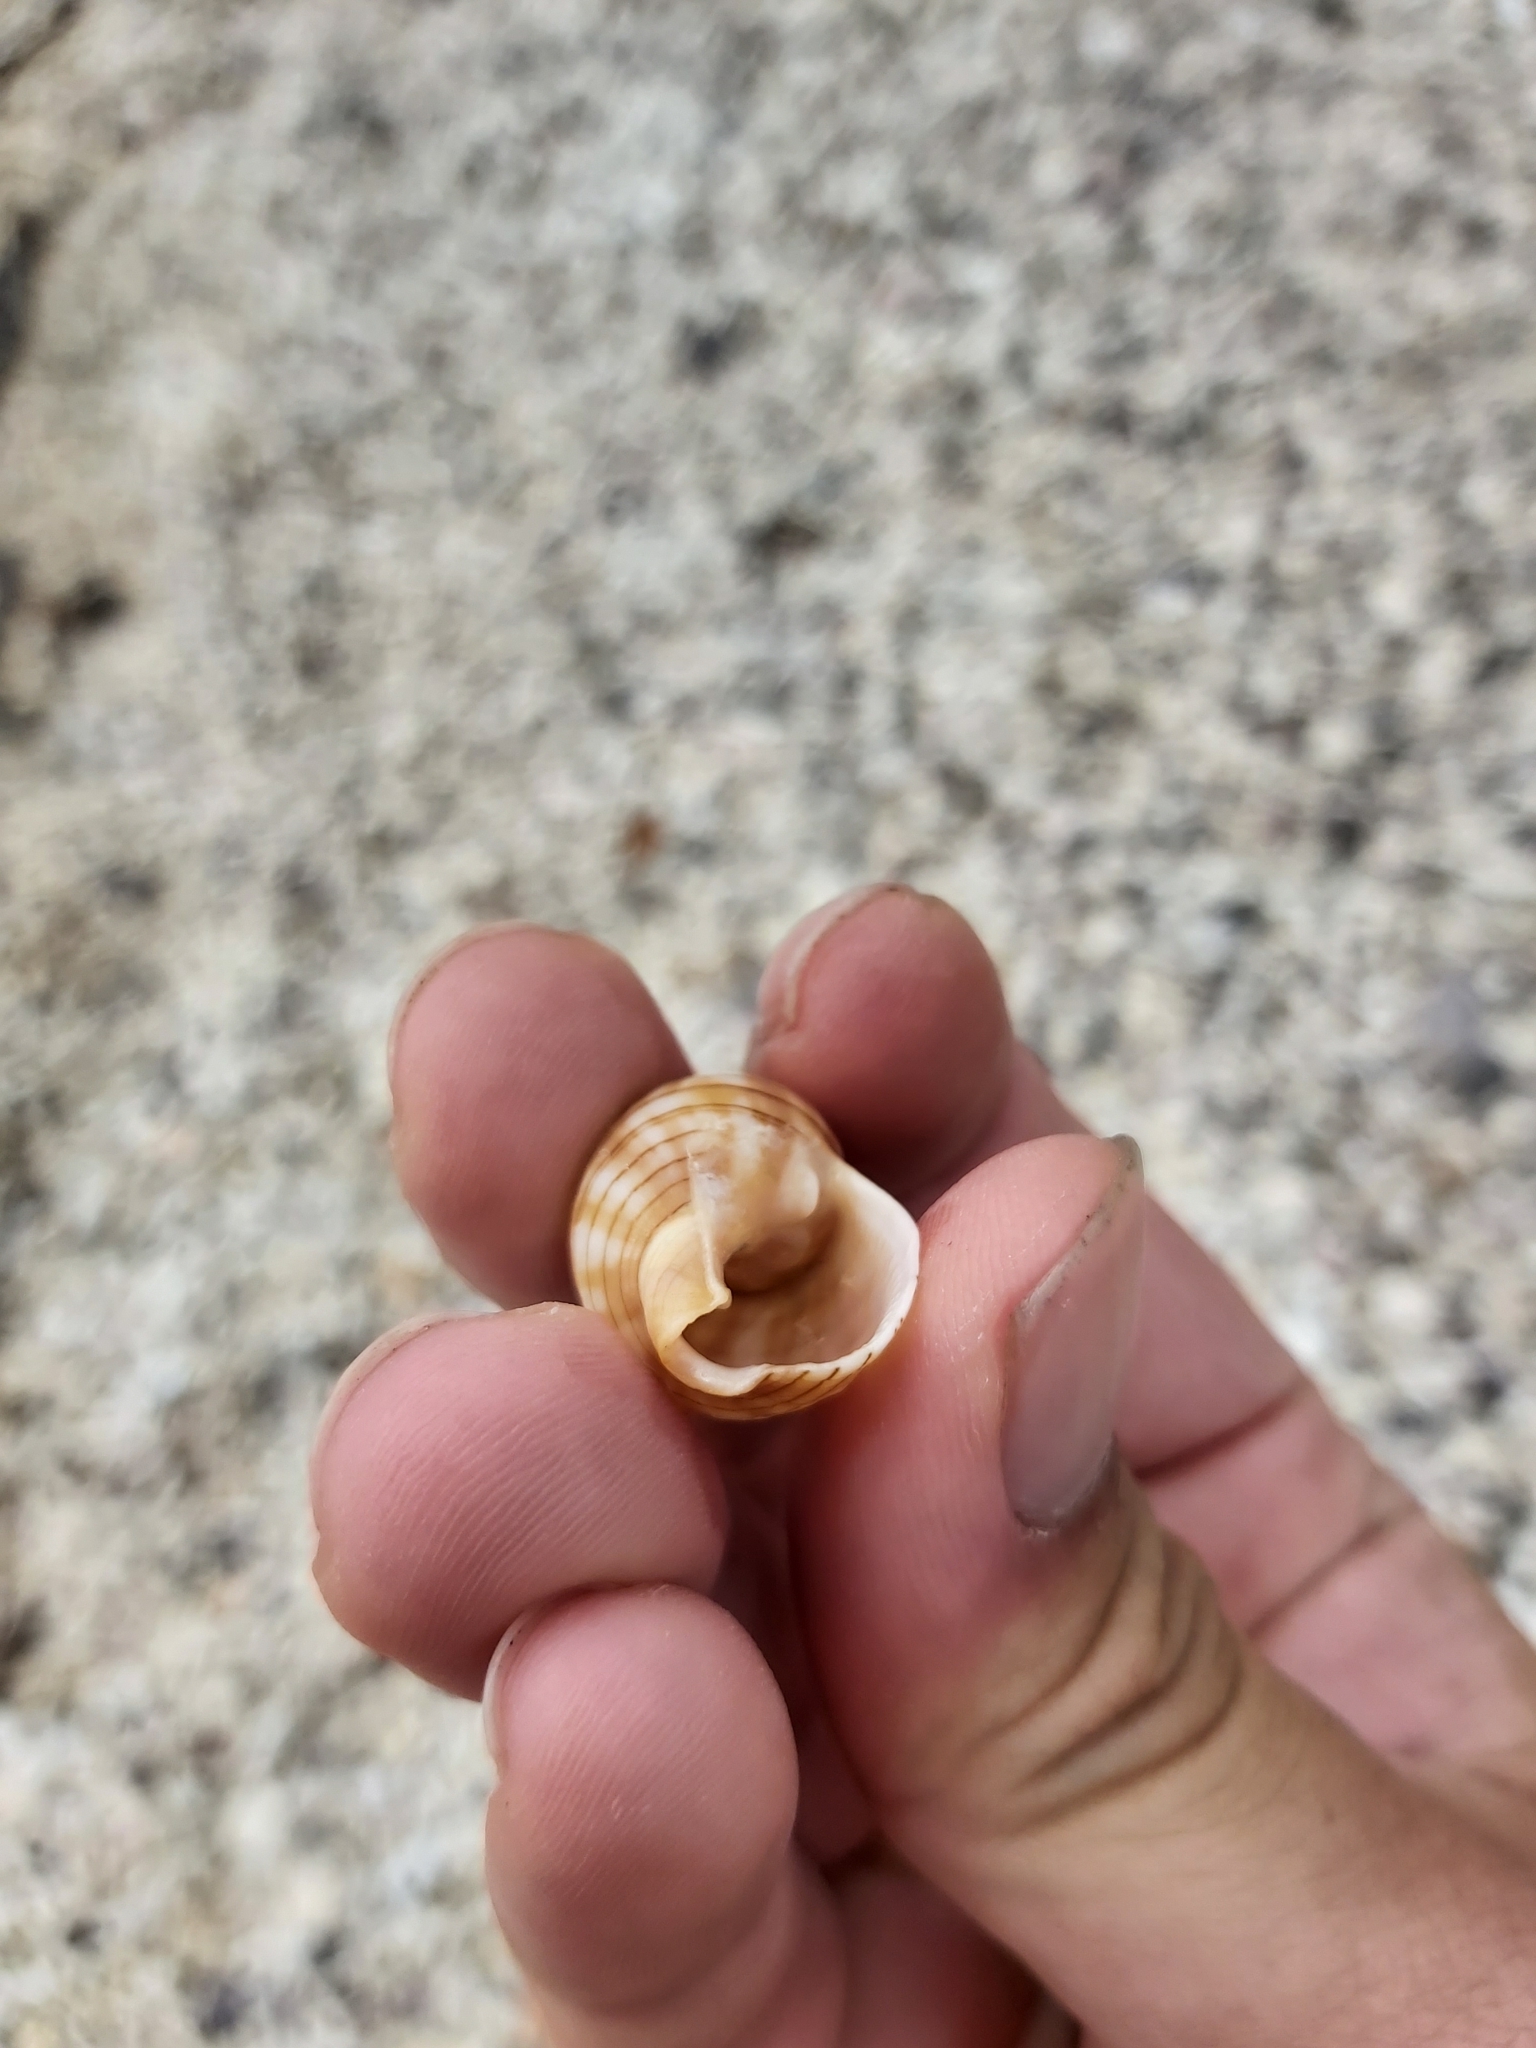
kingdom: Animalia
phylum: Mollusca
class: Gastropoda
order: Neogastropoda
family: Nassariidae
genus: Nassarius
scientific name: Nassarius particeps
